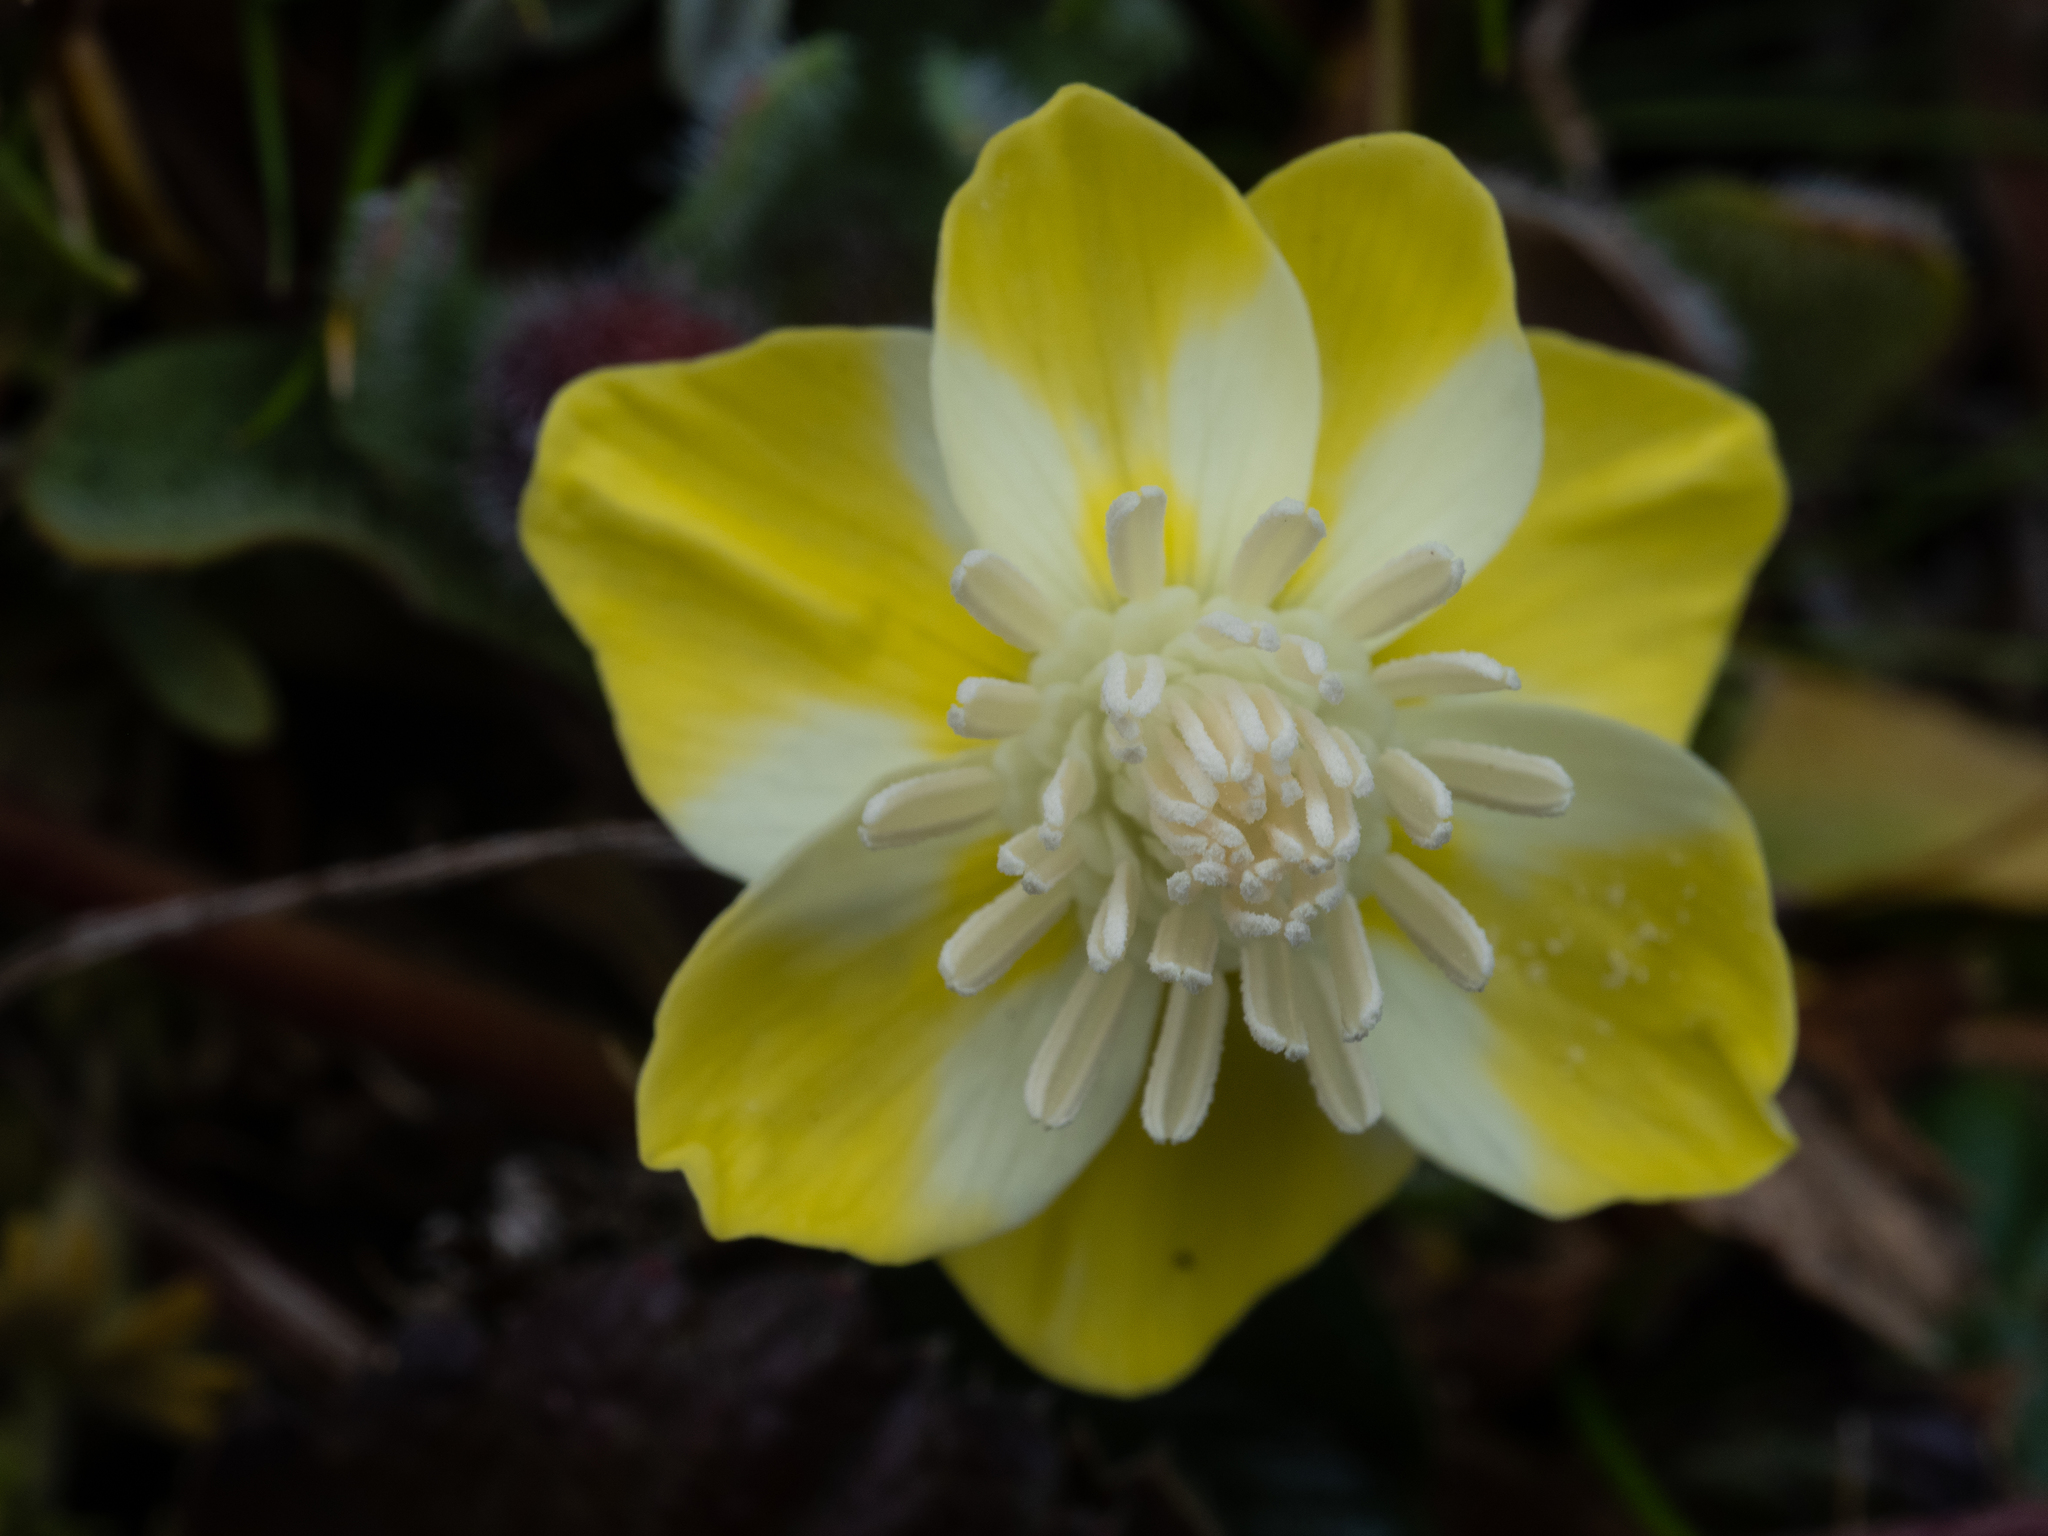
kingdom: Plantae
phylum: Tracheophyta
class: Magnoliopsida
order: Ranunculales
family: Papaveraceae
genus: Platystemon
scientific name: Platystemon californicus
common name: Cream-cups
